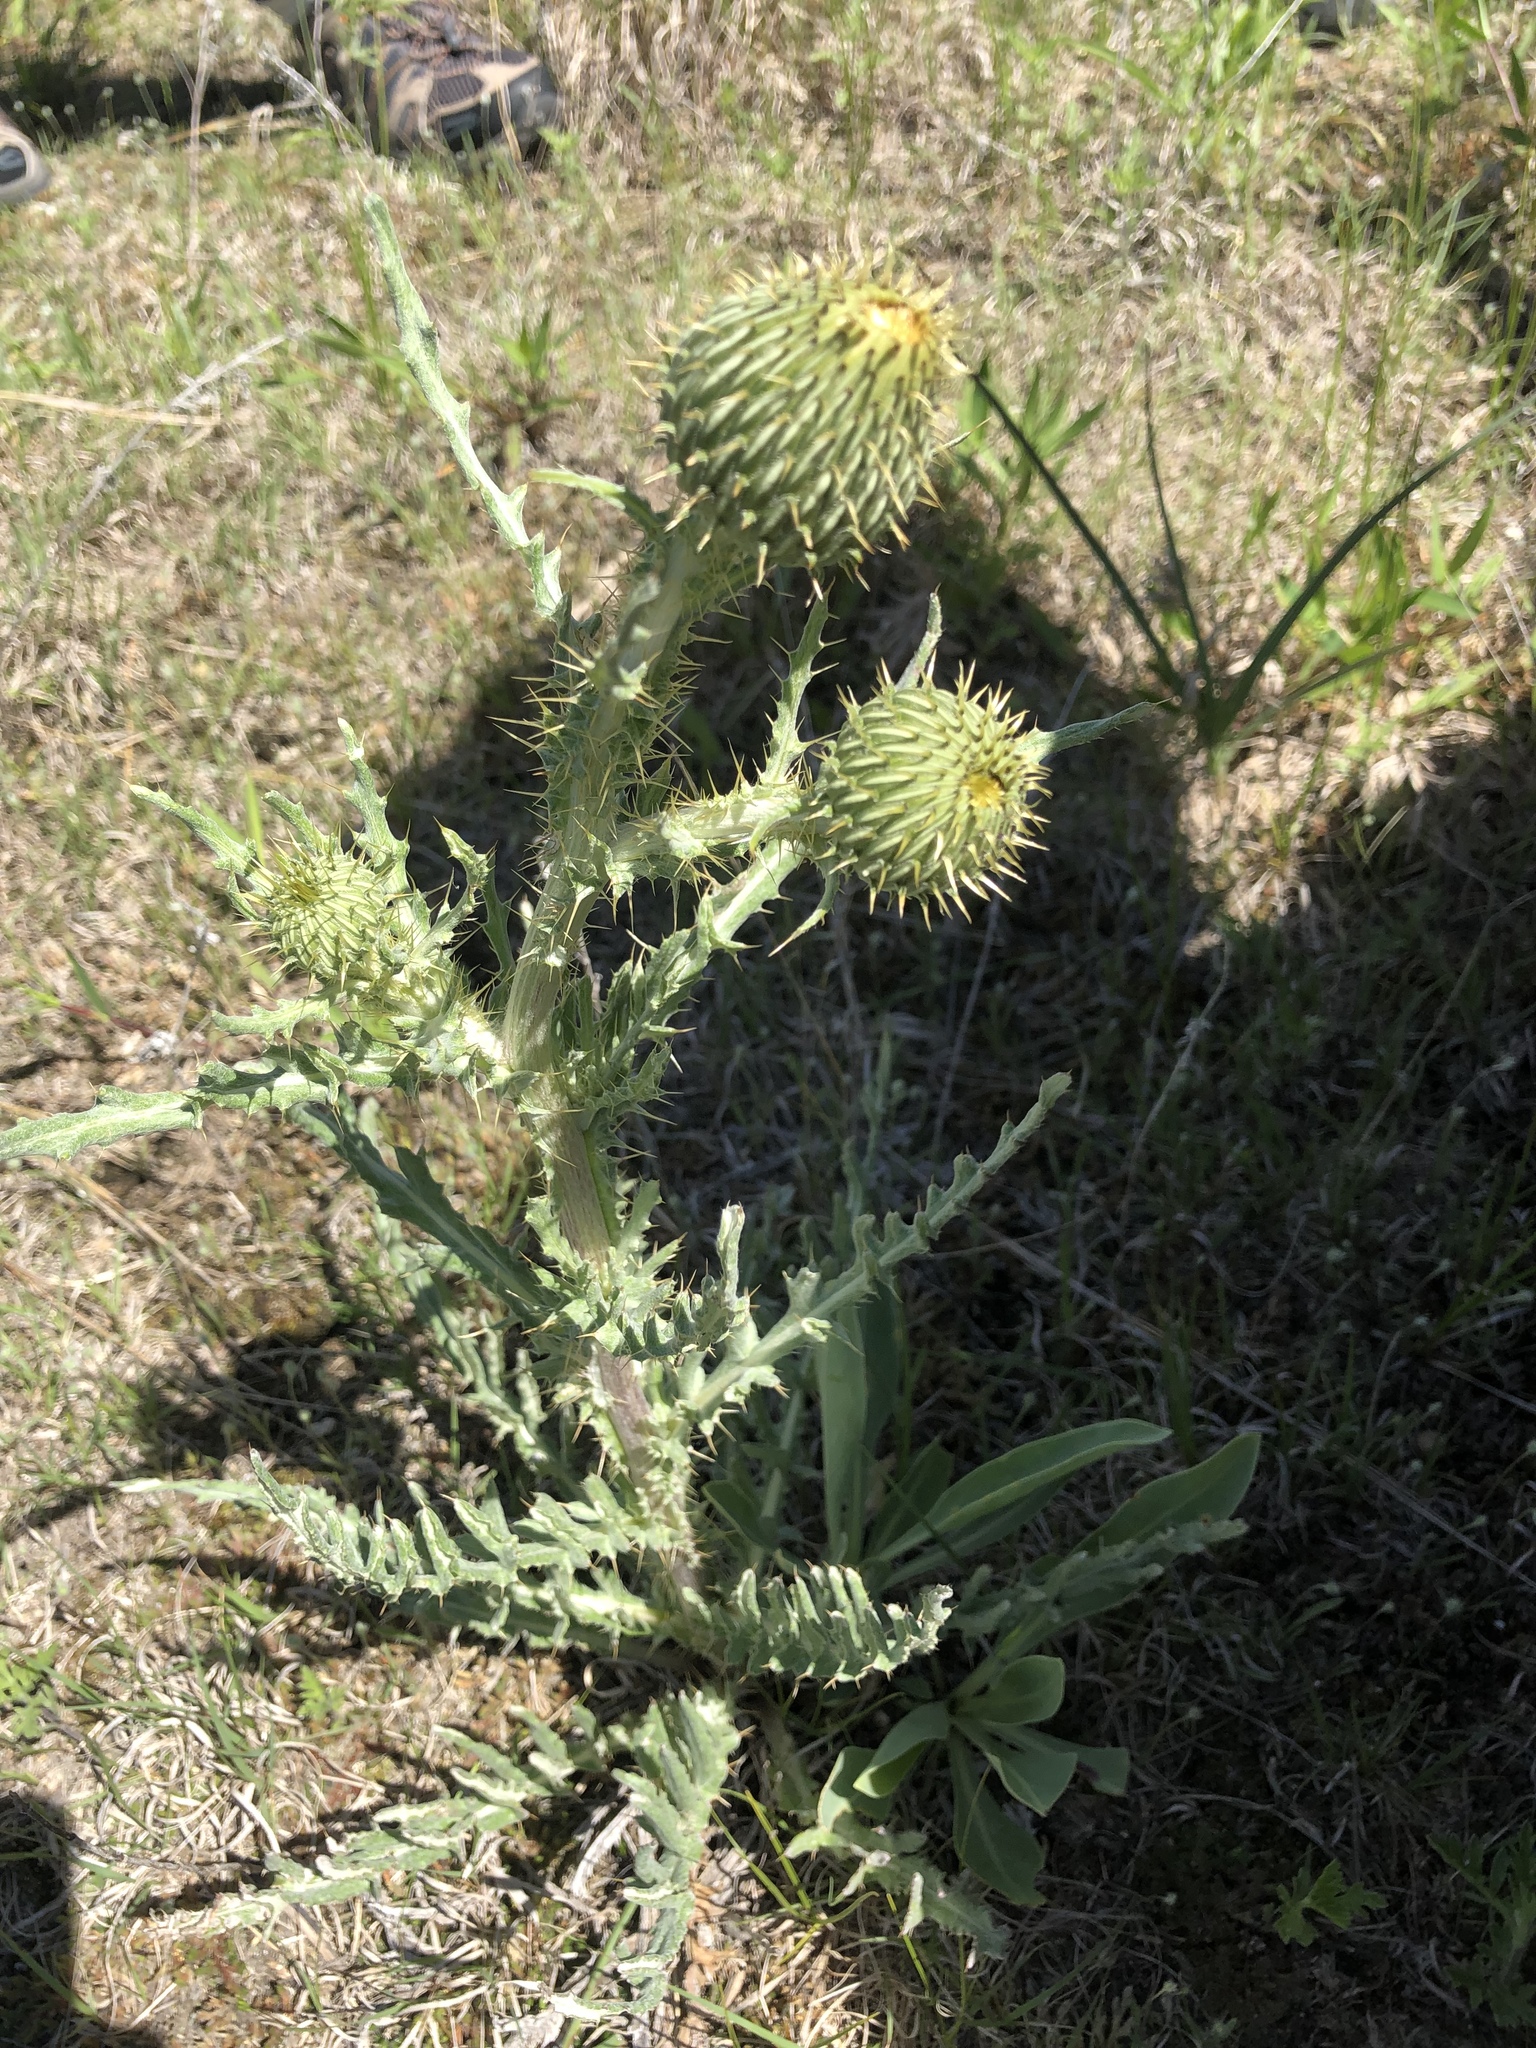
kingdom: Plantae
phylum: Tracheophyta
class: Magnoliopsida
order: Asterales
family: Asteraceae
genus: Cirsium
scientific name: Cirsium canescens
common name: Prairie thistle
